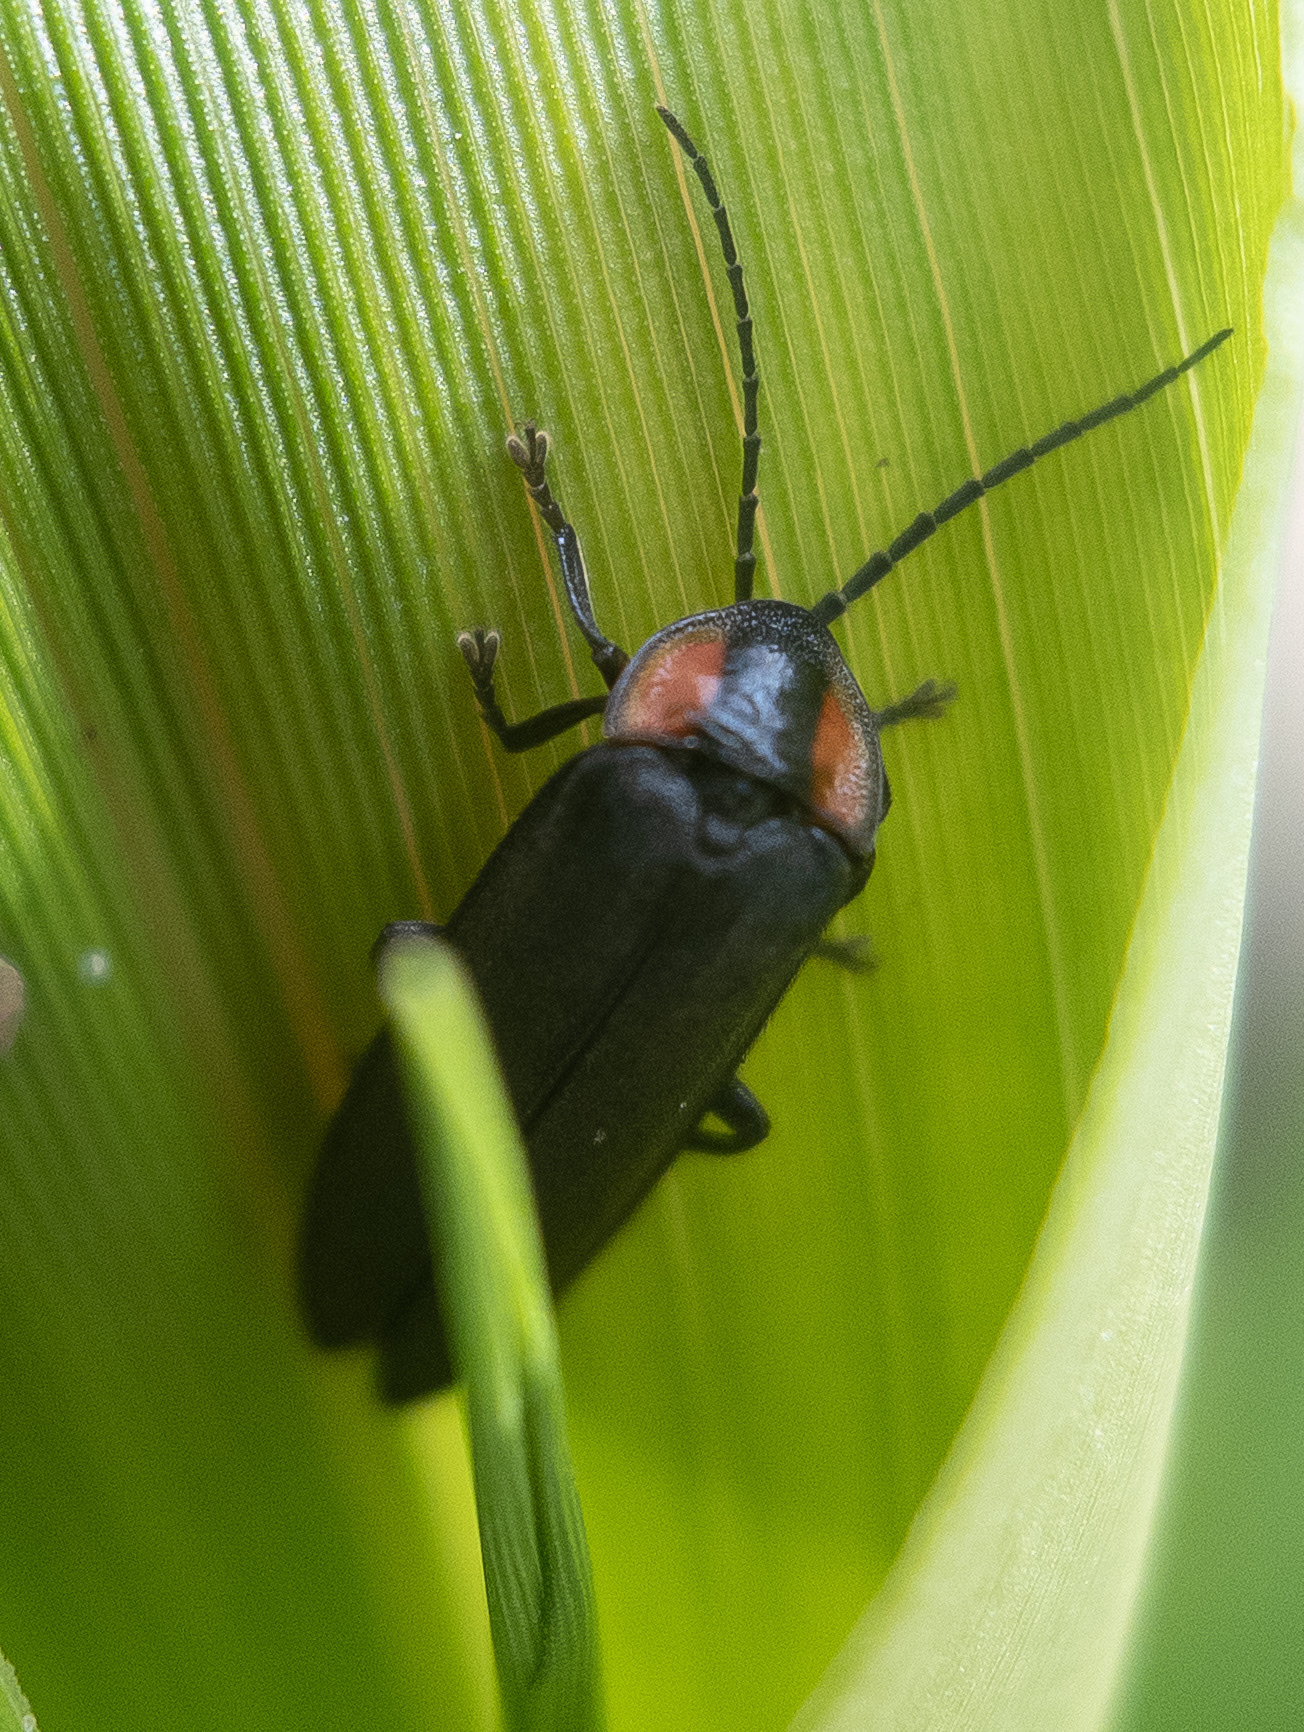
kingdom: Animalia
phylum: Arthropoda
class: Insecta
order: Coleoptera
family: Lampyridae
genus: Pyropyga
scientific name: Pyropyga nigricans
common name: Dark firefly
